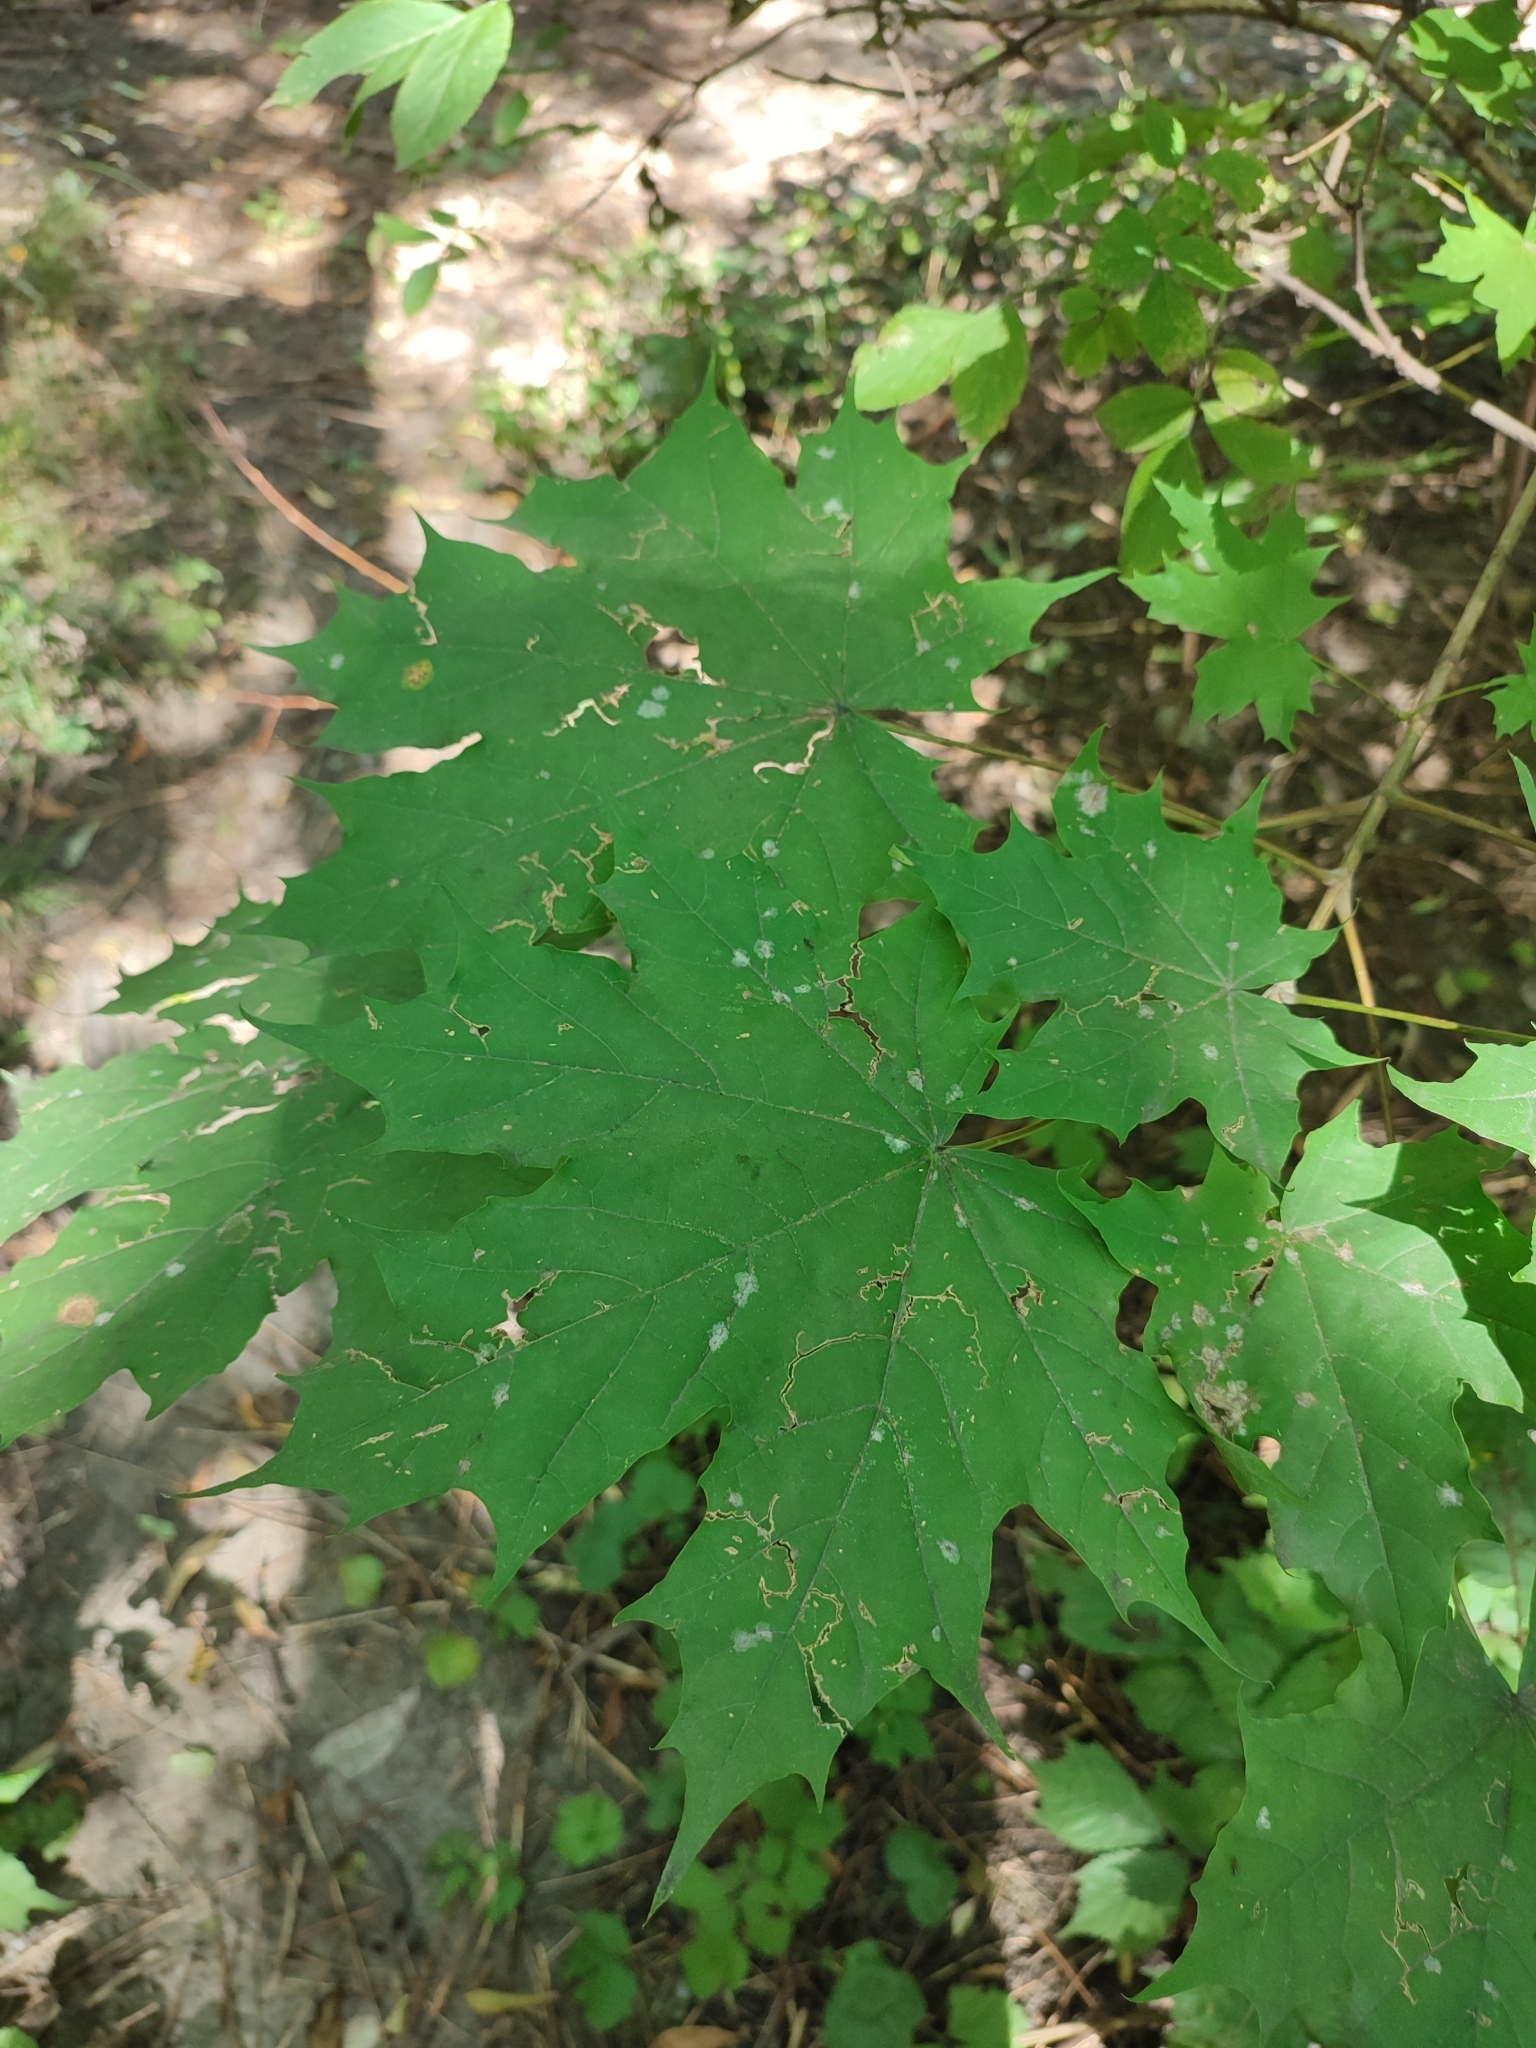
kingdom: Fungi
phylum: Ascomycota
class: Leotiomycetes
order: Helotiales
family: Erysiphaceae
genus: Sawadaea
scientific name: Sawadaea tulasnei
